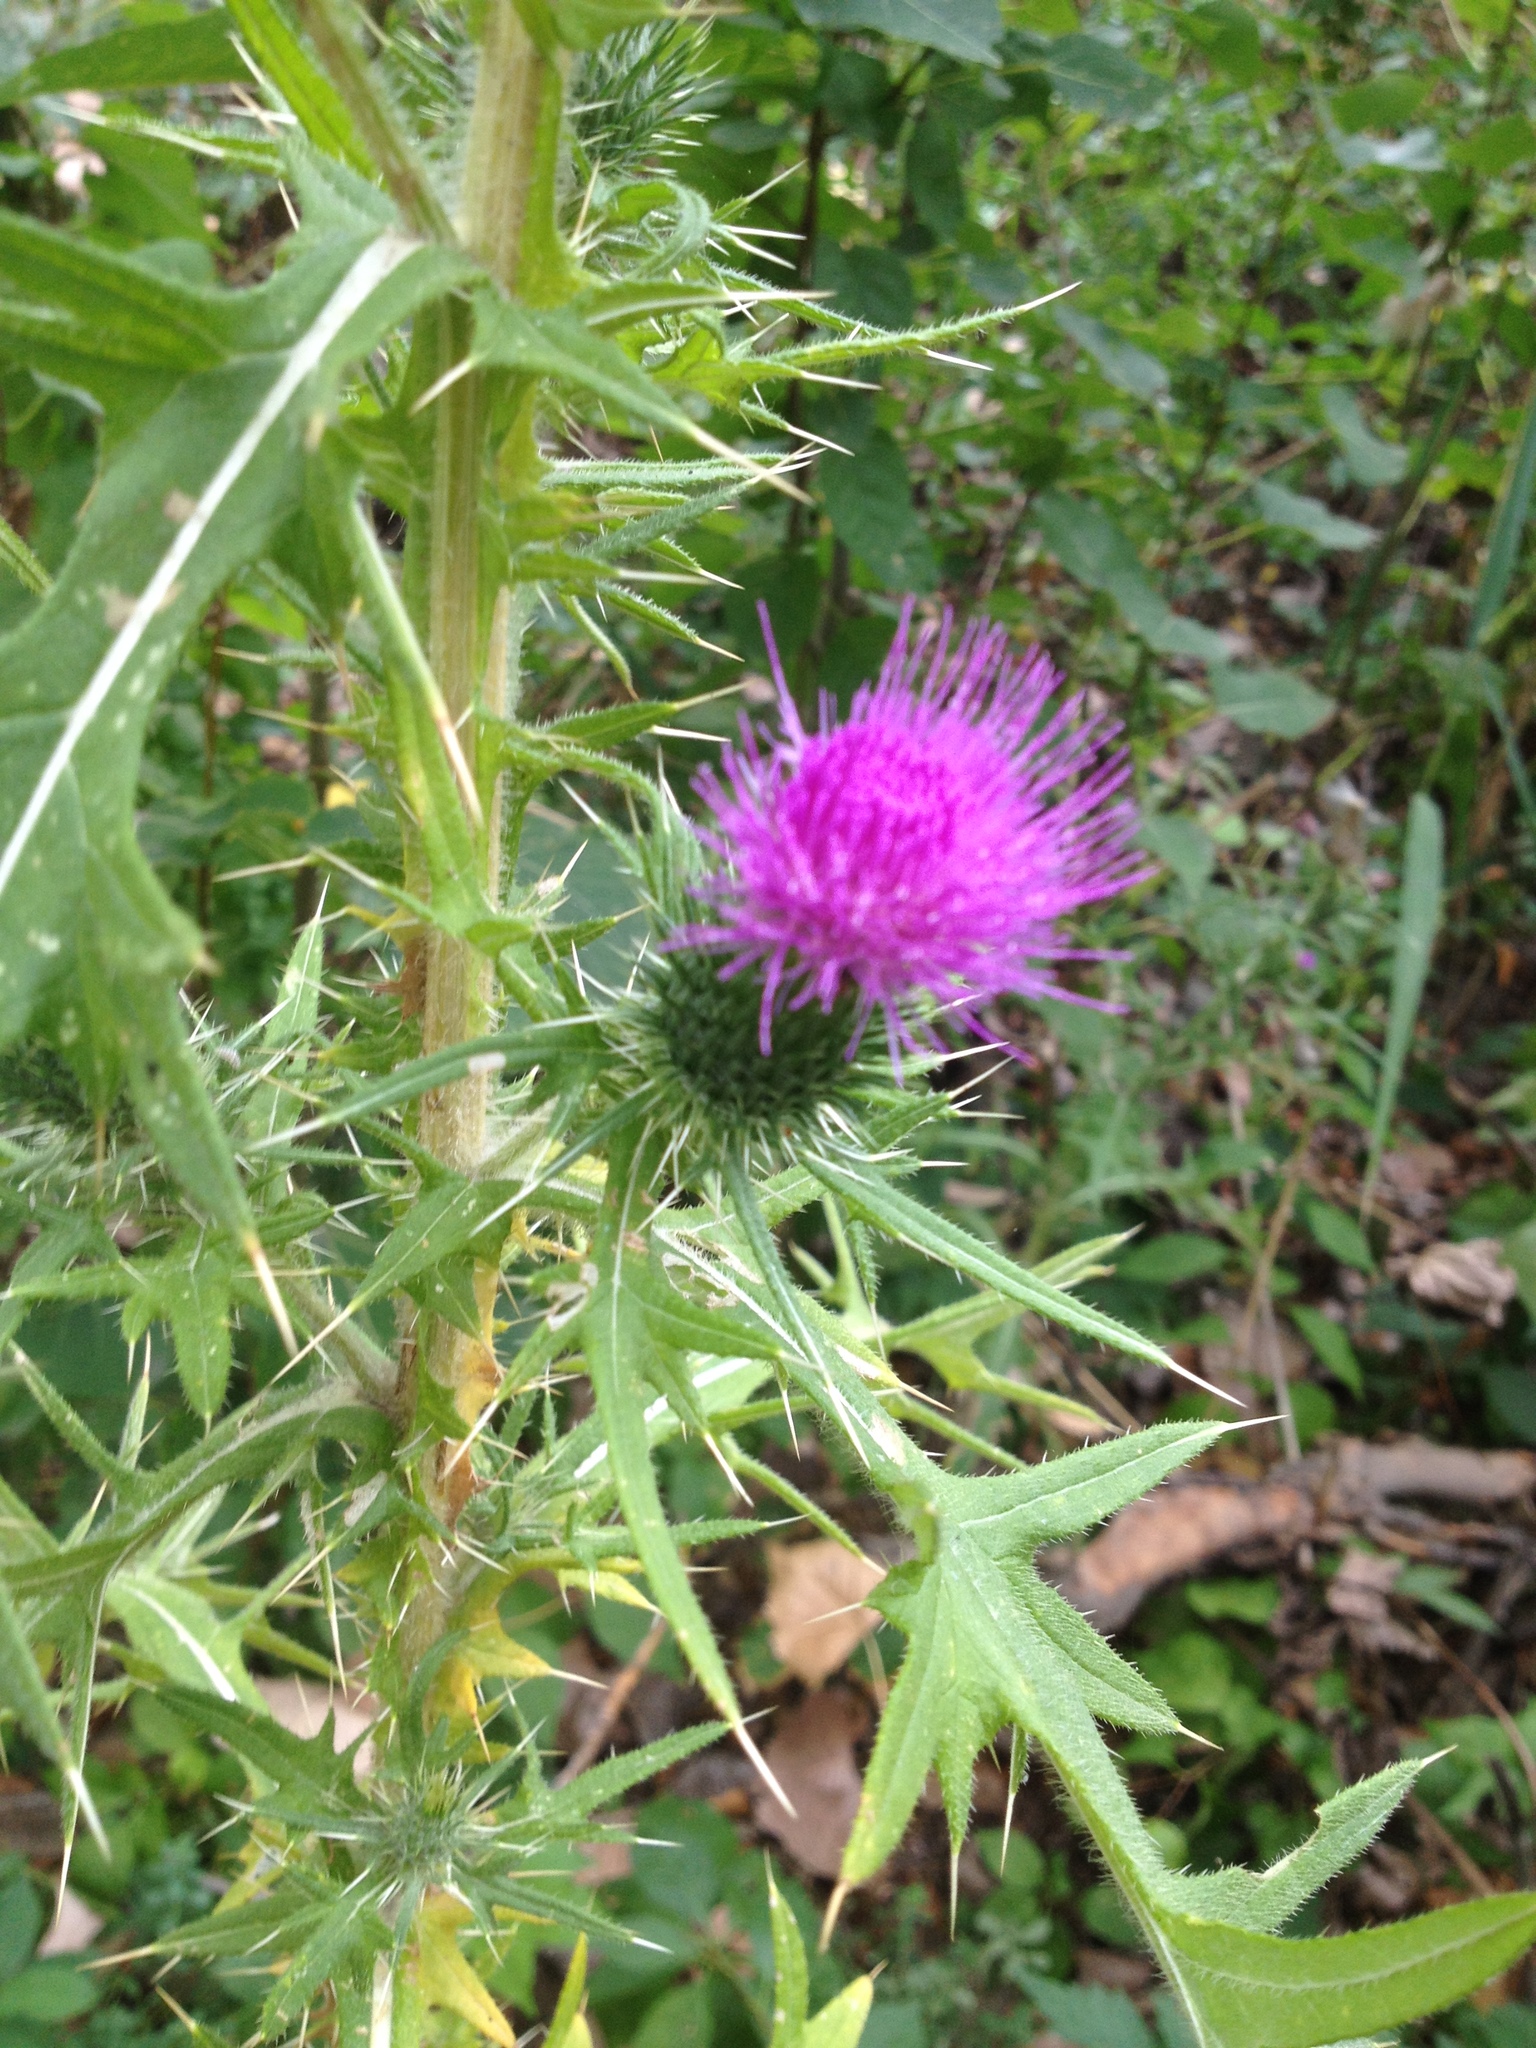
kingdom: Plantae
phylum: Tracheophyta
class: Magnoliopsida
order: Asterales
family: Asteraceae
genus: Cirsium
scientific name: Cirsium vulgare
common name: Bull thistle
